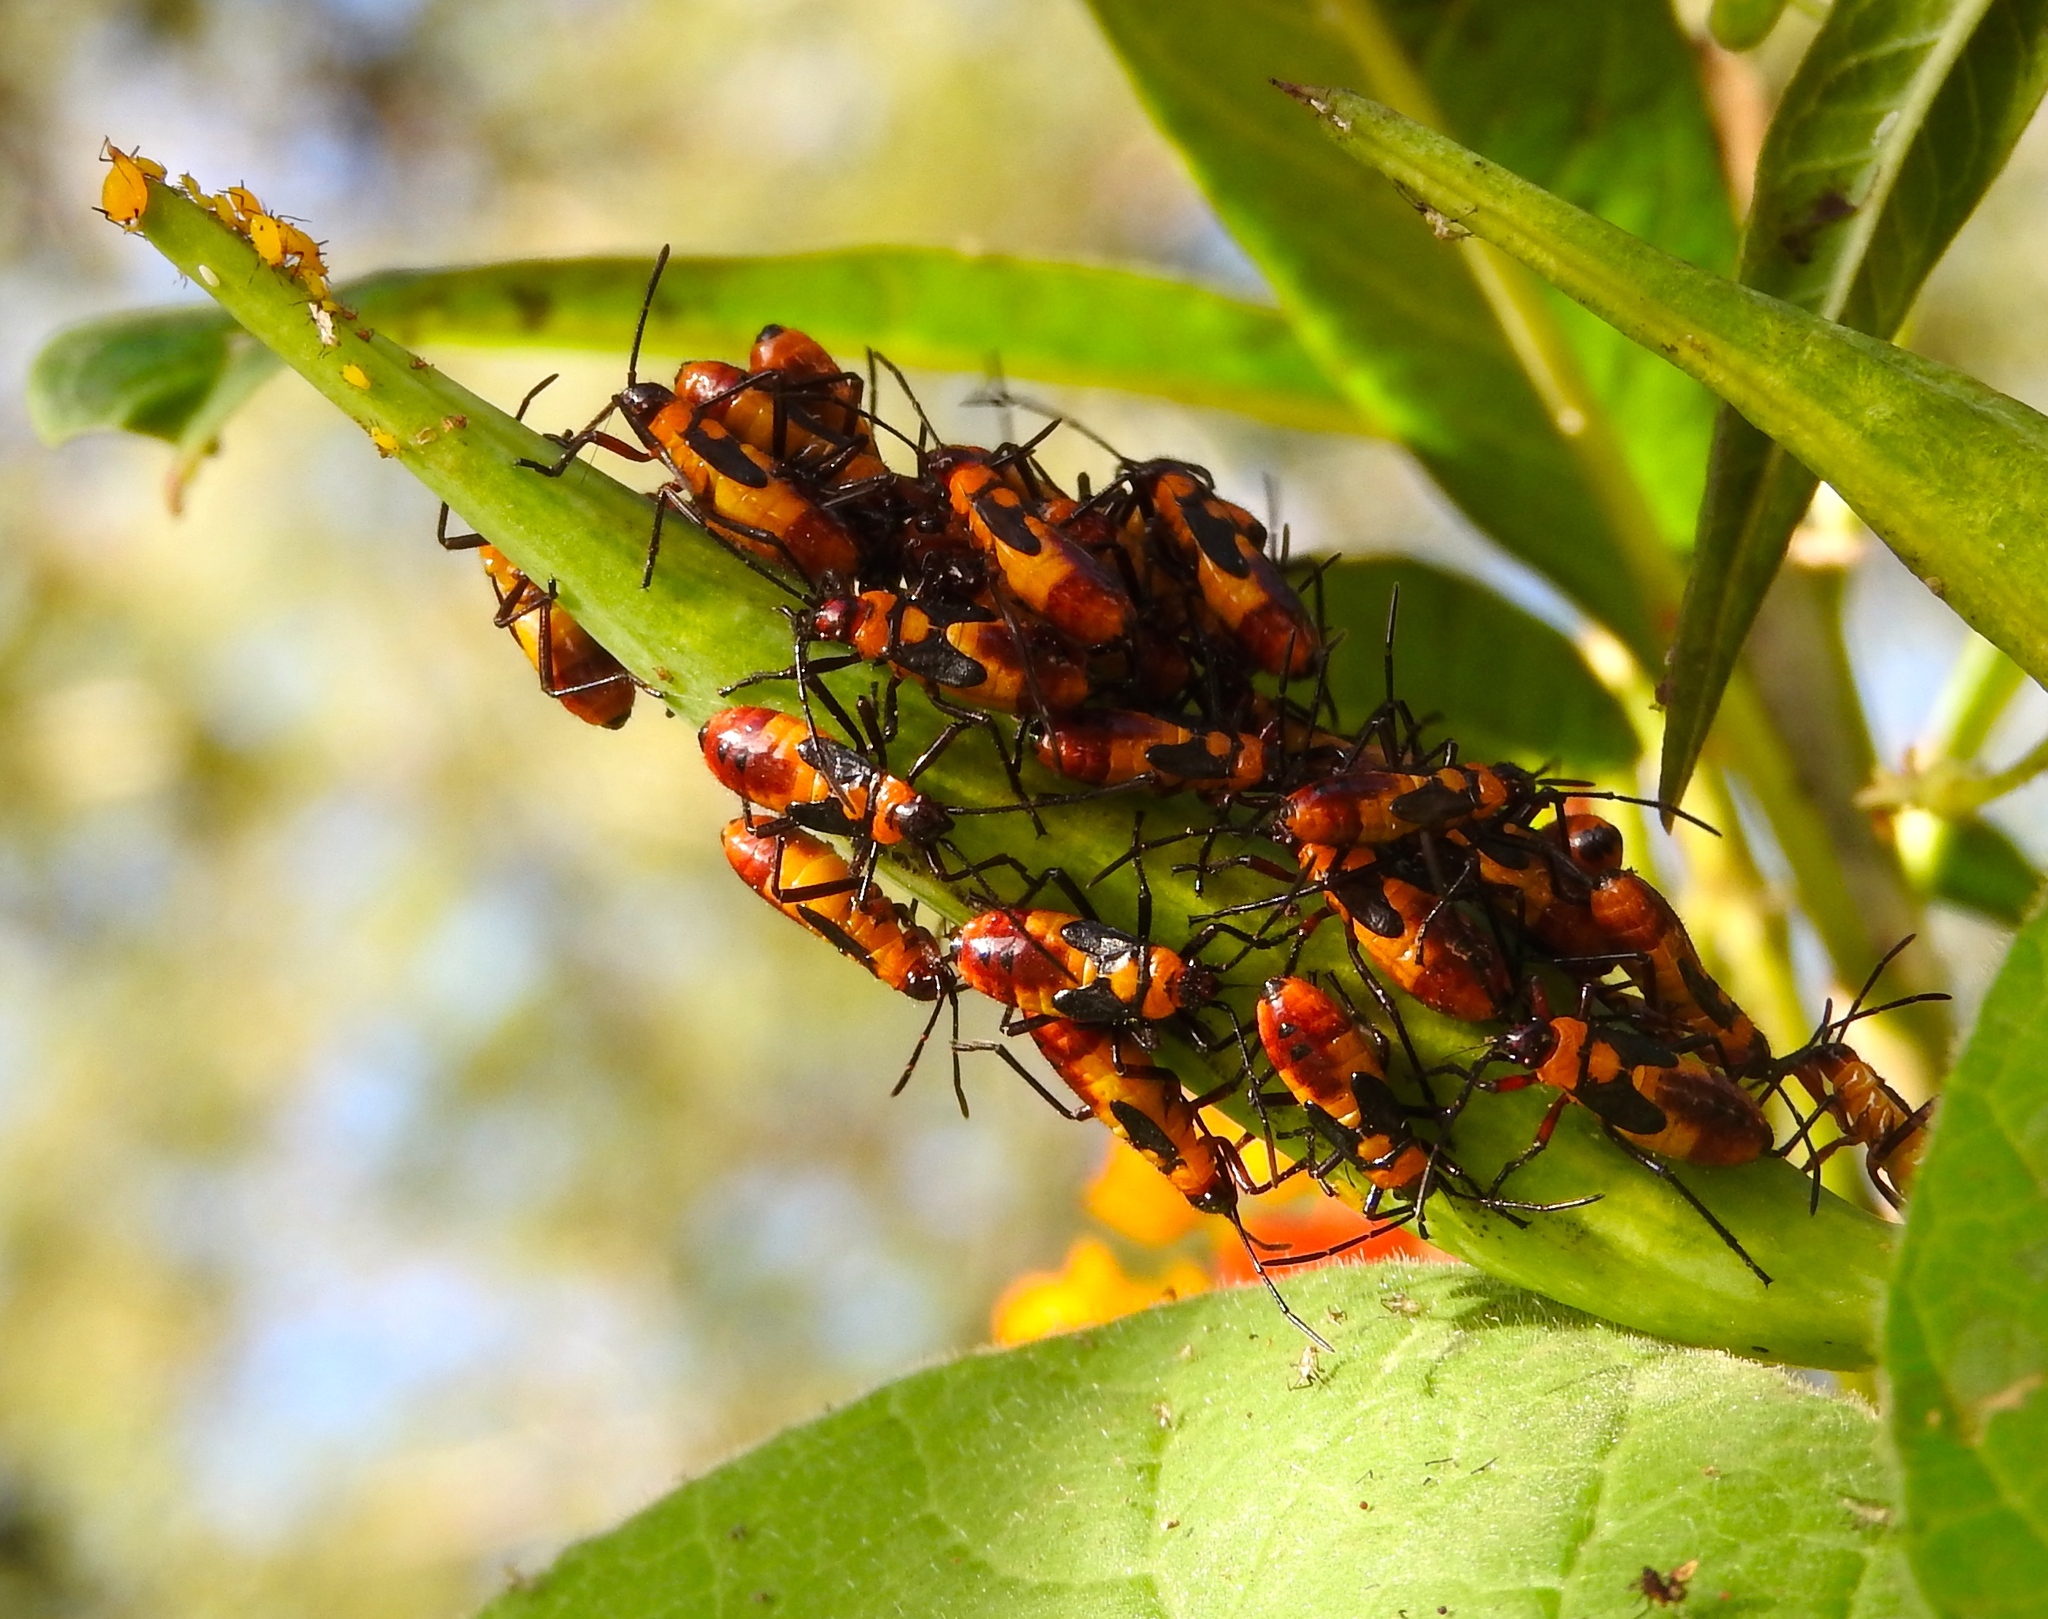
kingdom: Animalia
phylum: Arthropoda
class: Insecta
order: Hemiptera
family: Lygaeidae
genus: Oncopeltus
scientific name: Oncopeltus
